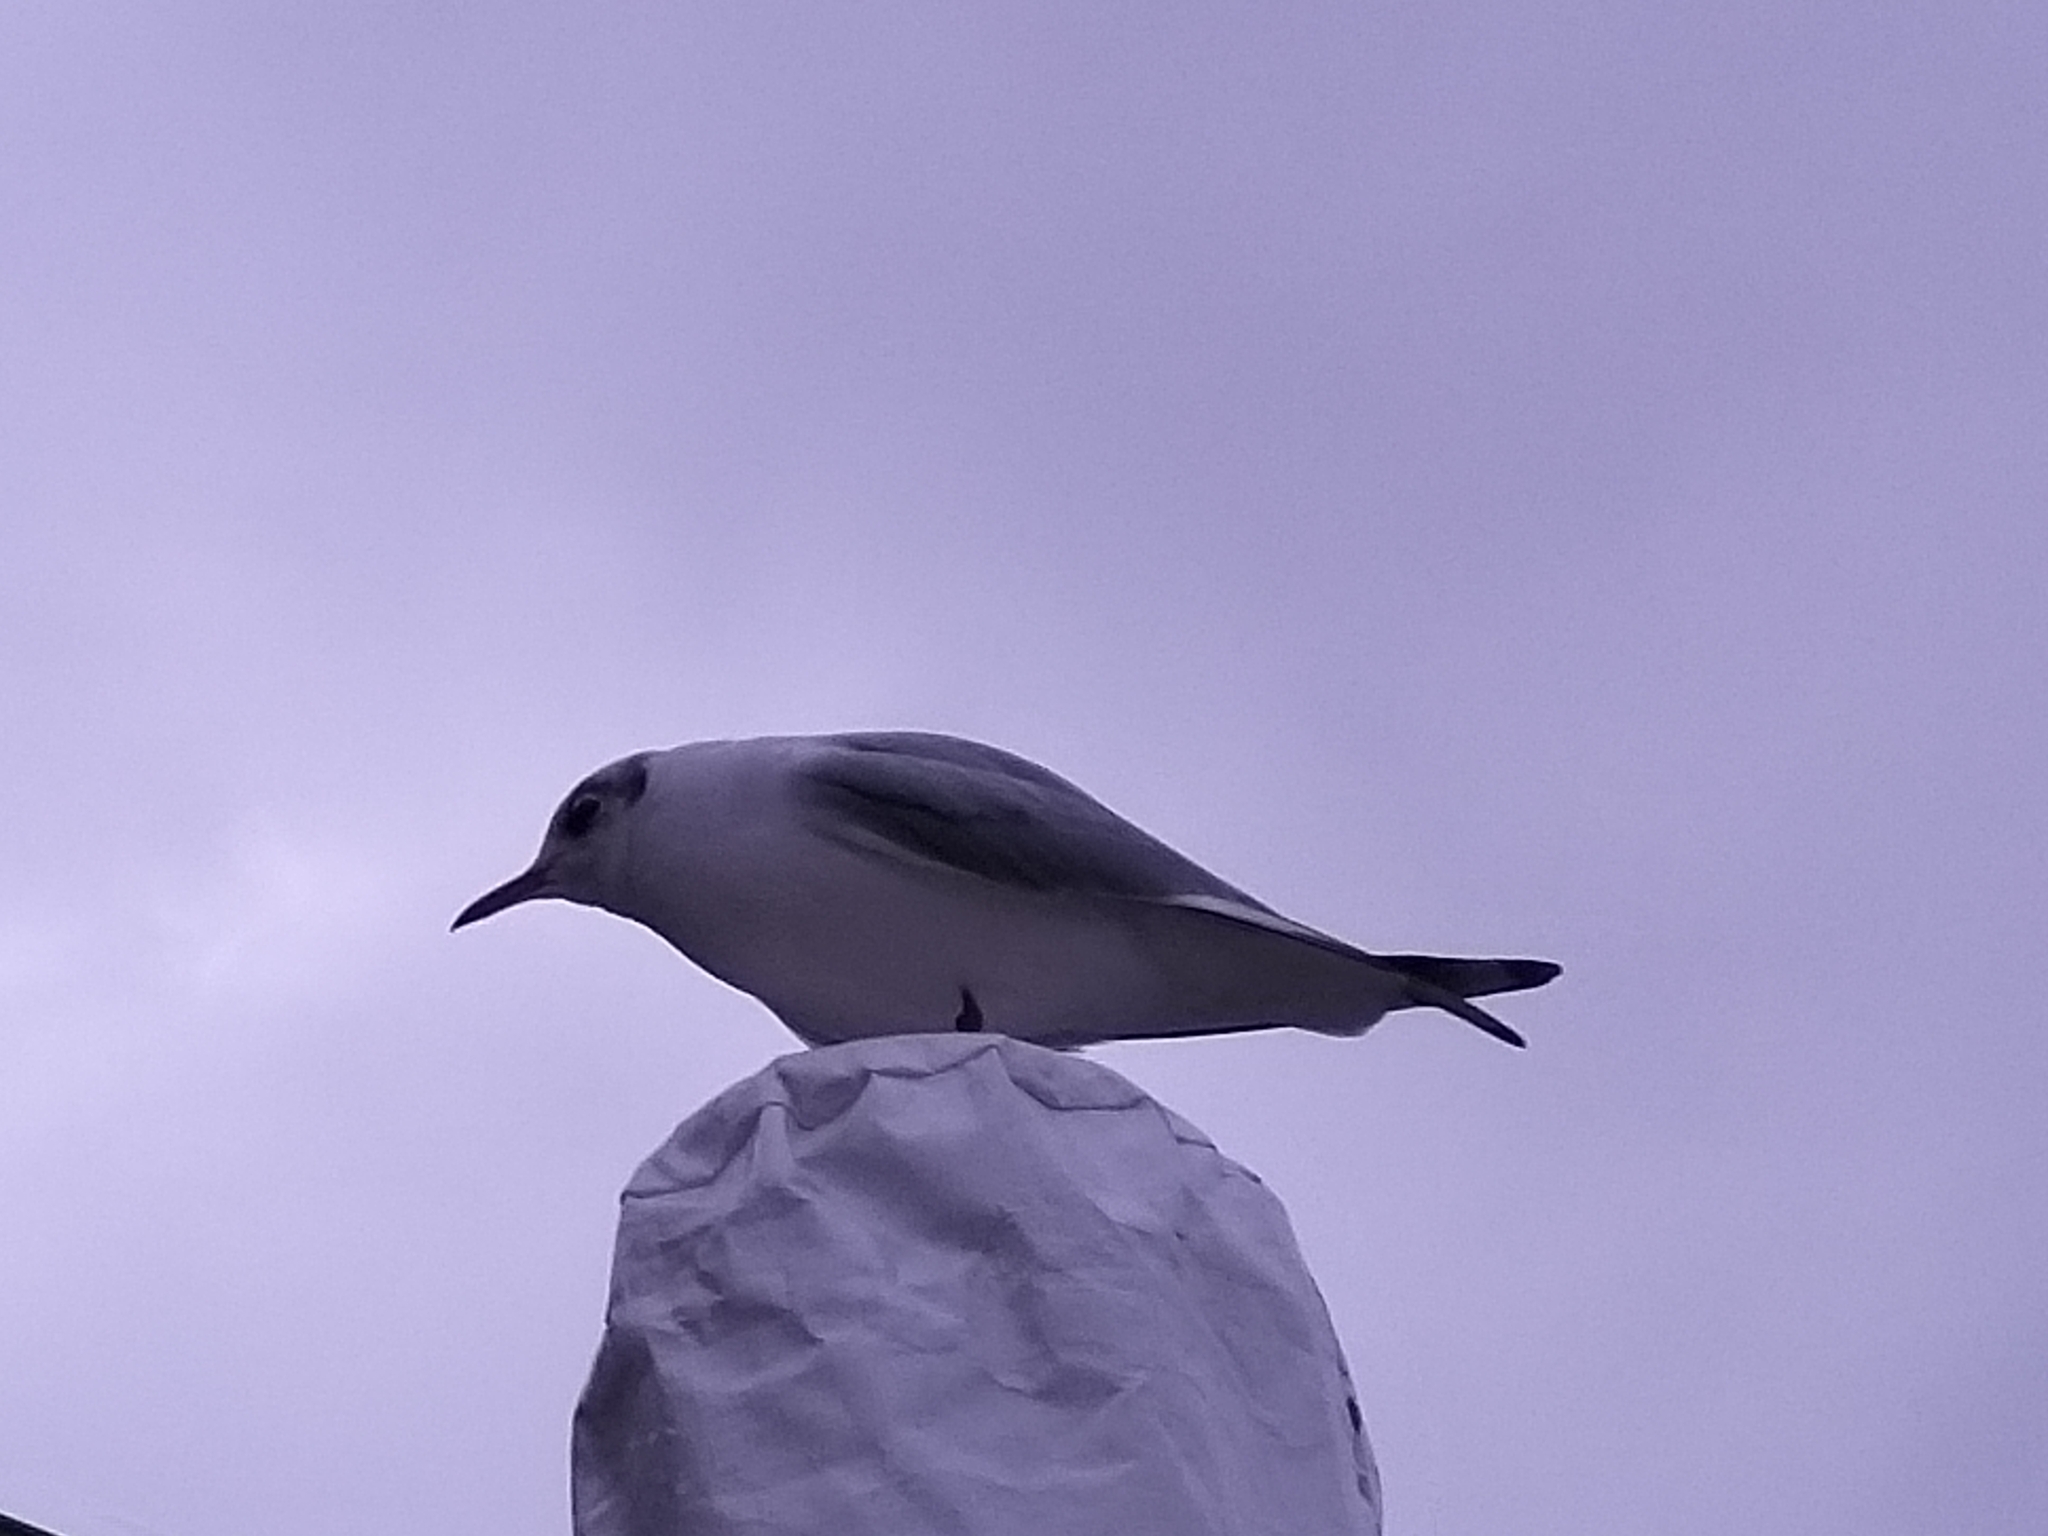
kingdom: Animalia
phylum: Chordata
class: Aves
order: Charadriiformes
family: Laridae
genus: Chroicocephalus
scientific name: Chroicocephalus ridibundus
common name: Black-headed gull
